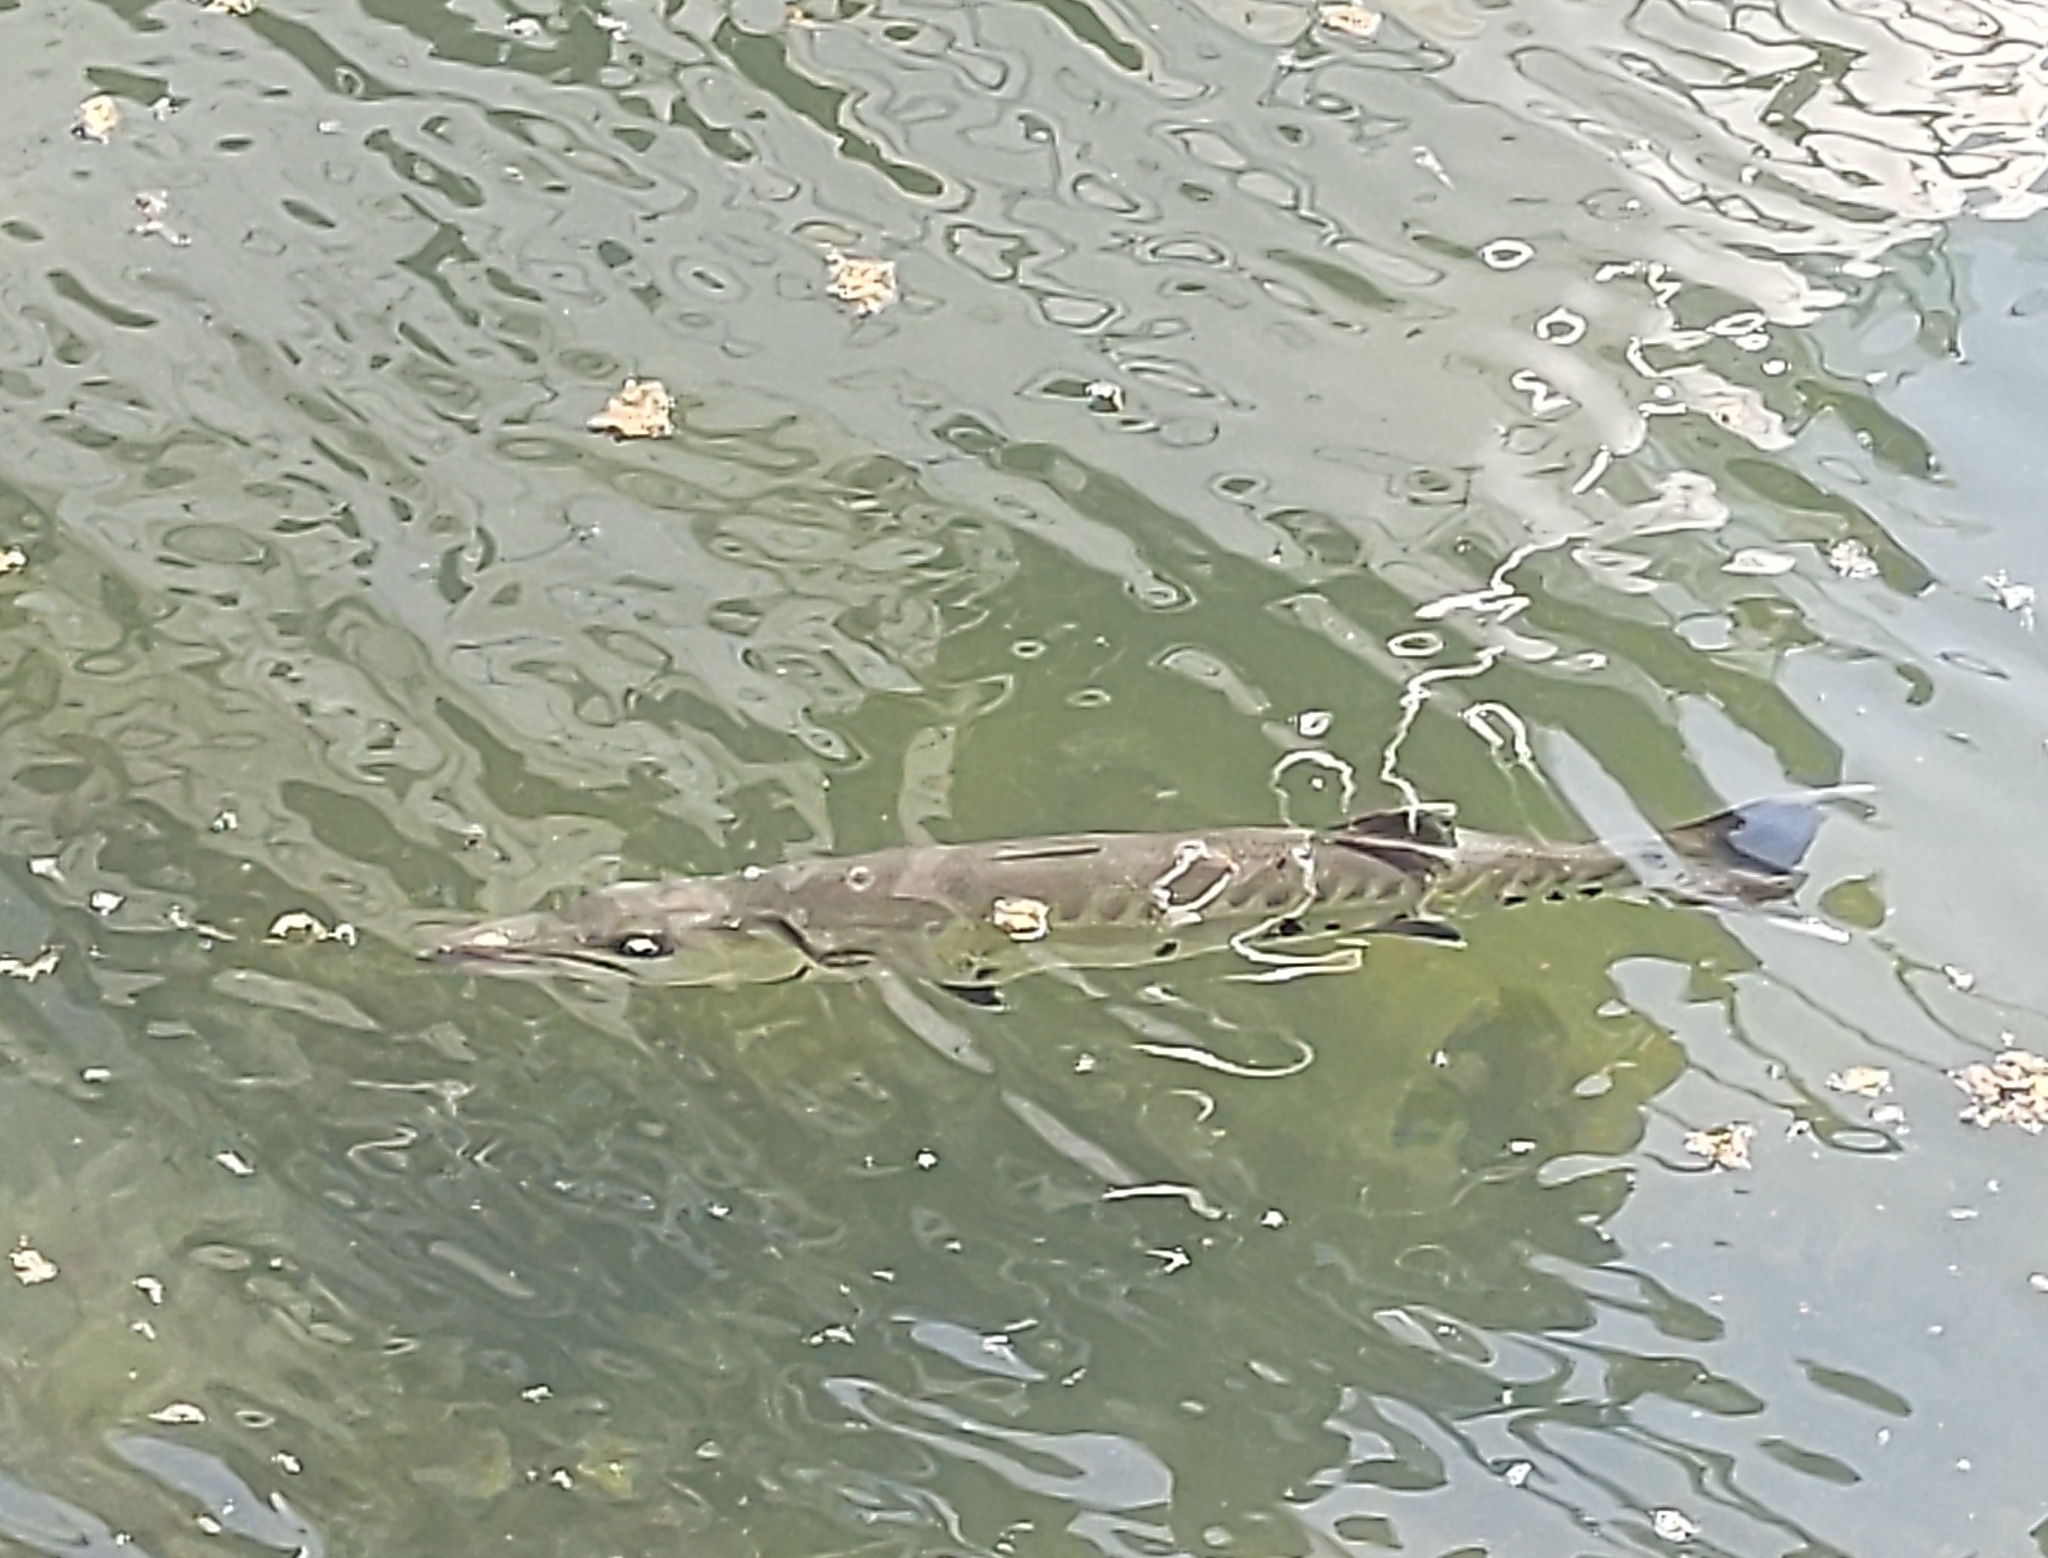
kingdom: Animalia
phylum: Chordata
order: Perciformes
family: Sphyraenidae
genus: Sphyraena
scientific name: Sphyraena barracuda
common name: Great barracuda
